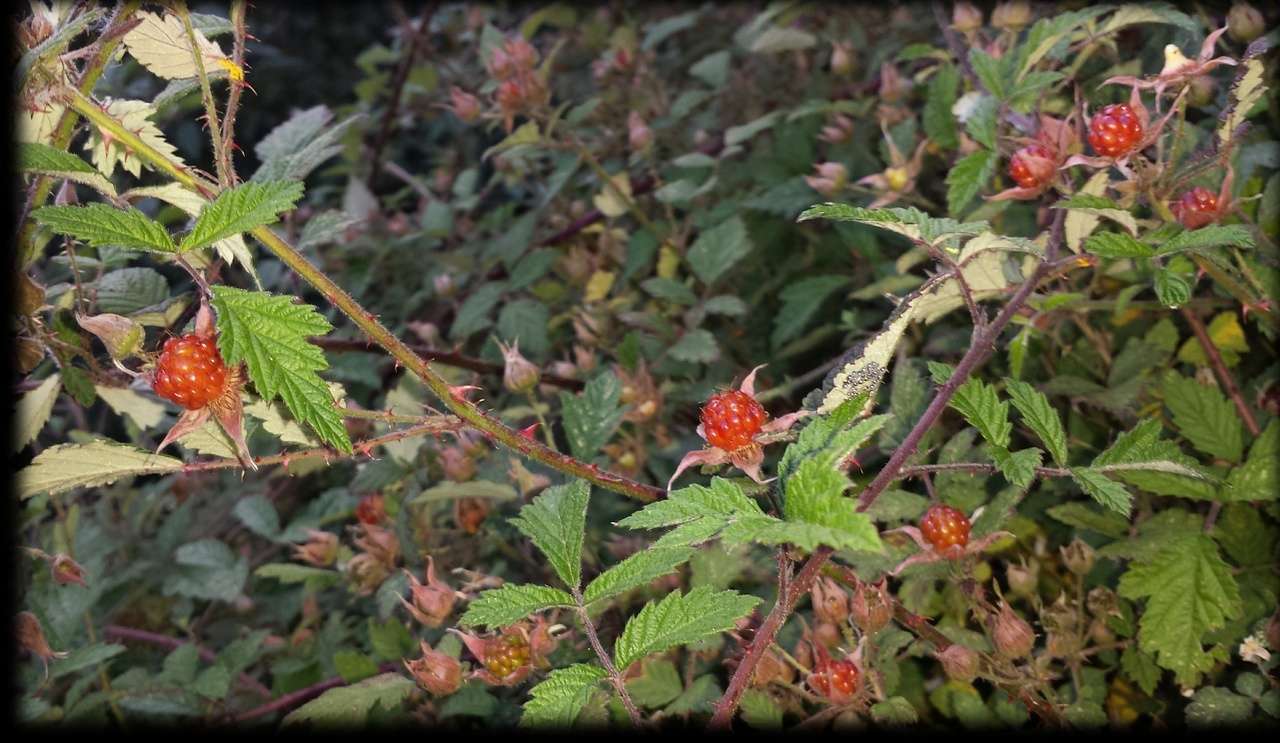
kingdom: Plantae
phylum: Tracheophyta
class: Magnoliopsida
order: Rosales
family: Rosaceae
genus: Rubus
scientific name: Rubus parvifolius
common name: Threeleaf blackberry
